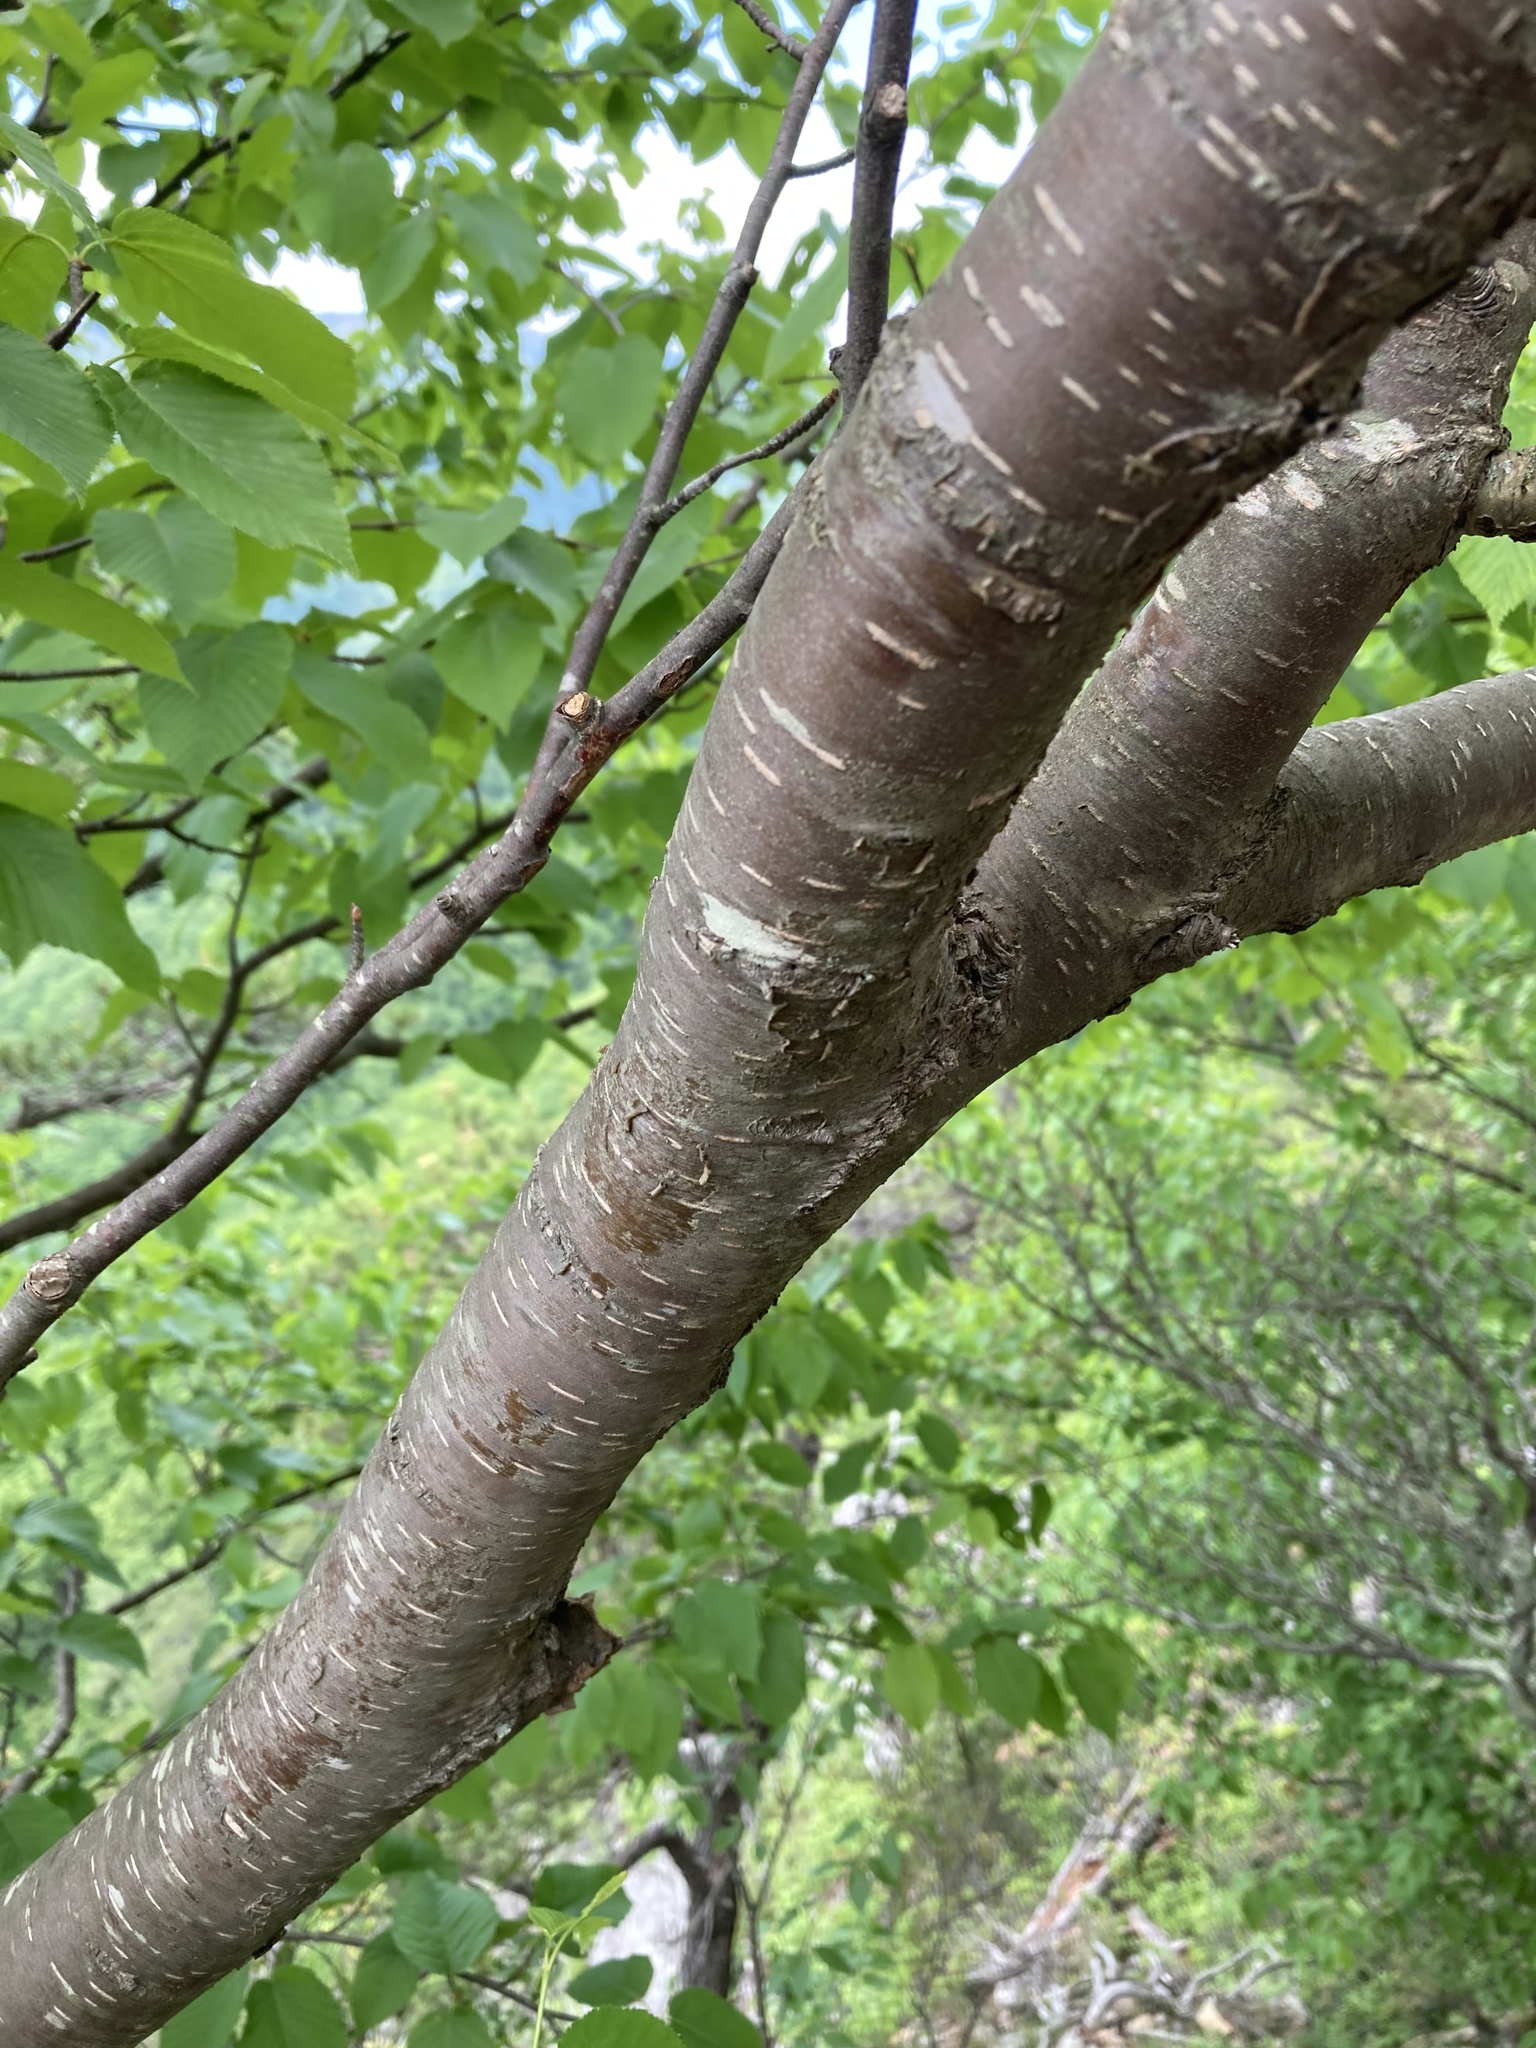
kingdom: Plantae
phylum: Tracheophyta
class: Magnoliopsida
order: Fagales
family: Betulaceae
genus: Betula
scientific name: Betula lenta
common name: Black birch
